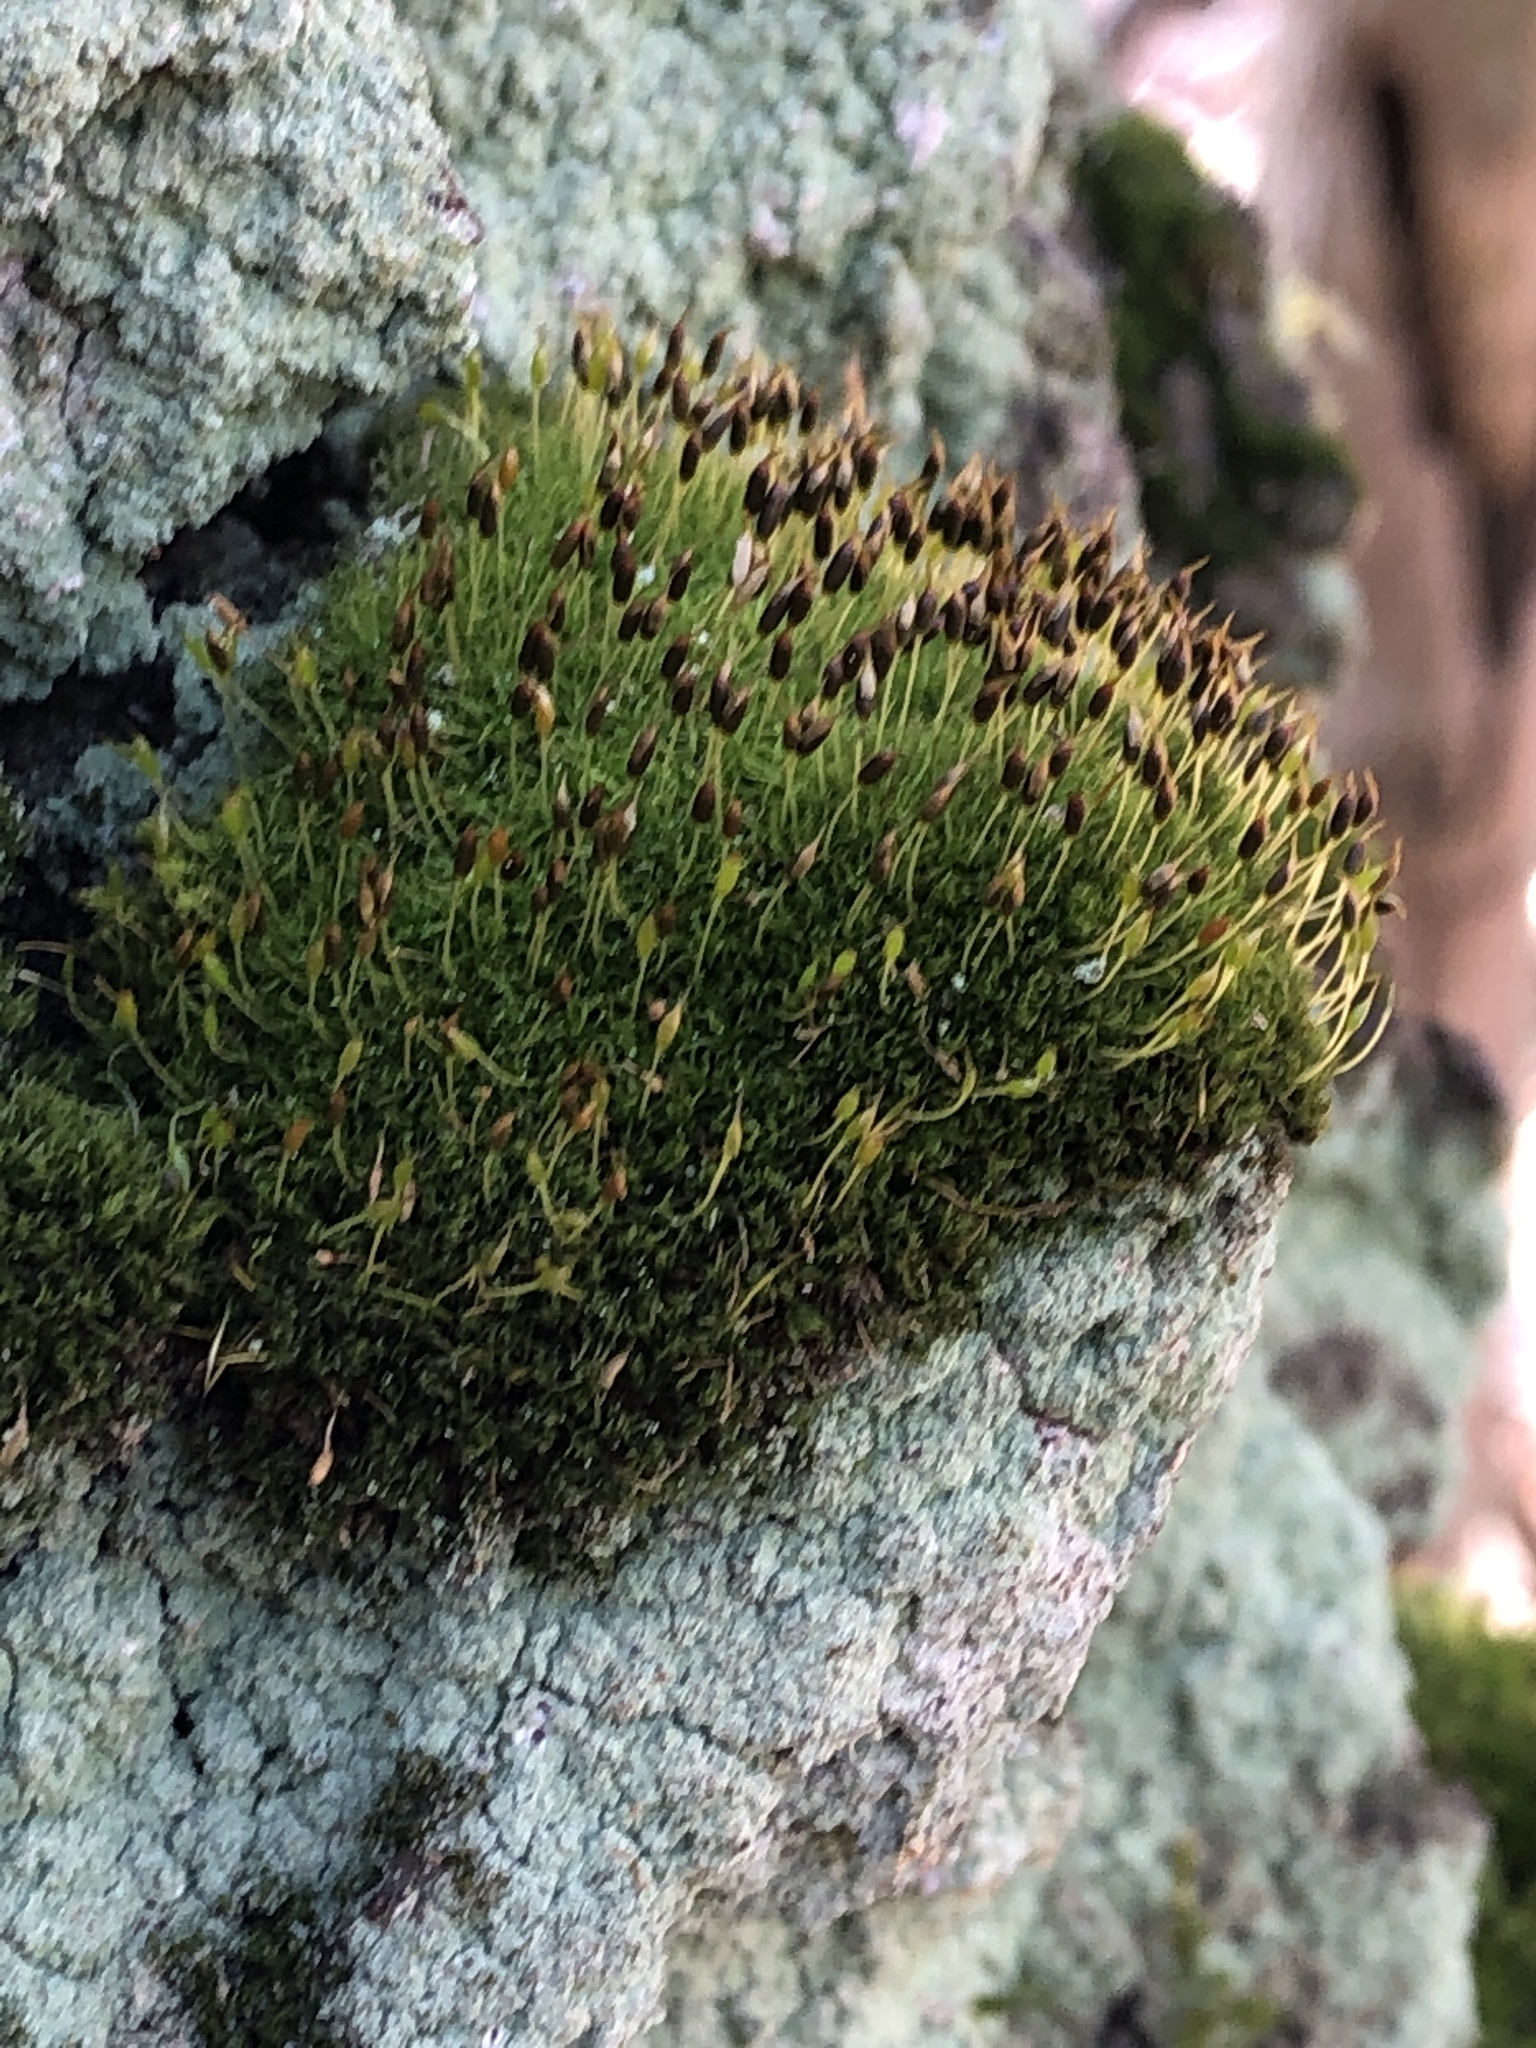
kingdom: Plantae
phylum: Bryophyta
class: Bryopsida
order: Dicranales
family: Rhabdoweisiaceae
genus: Dicranoweisia
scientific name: Dicranoweisia cirrata
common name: Common pincushion
